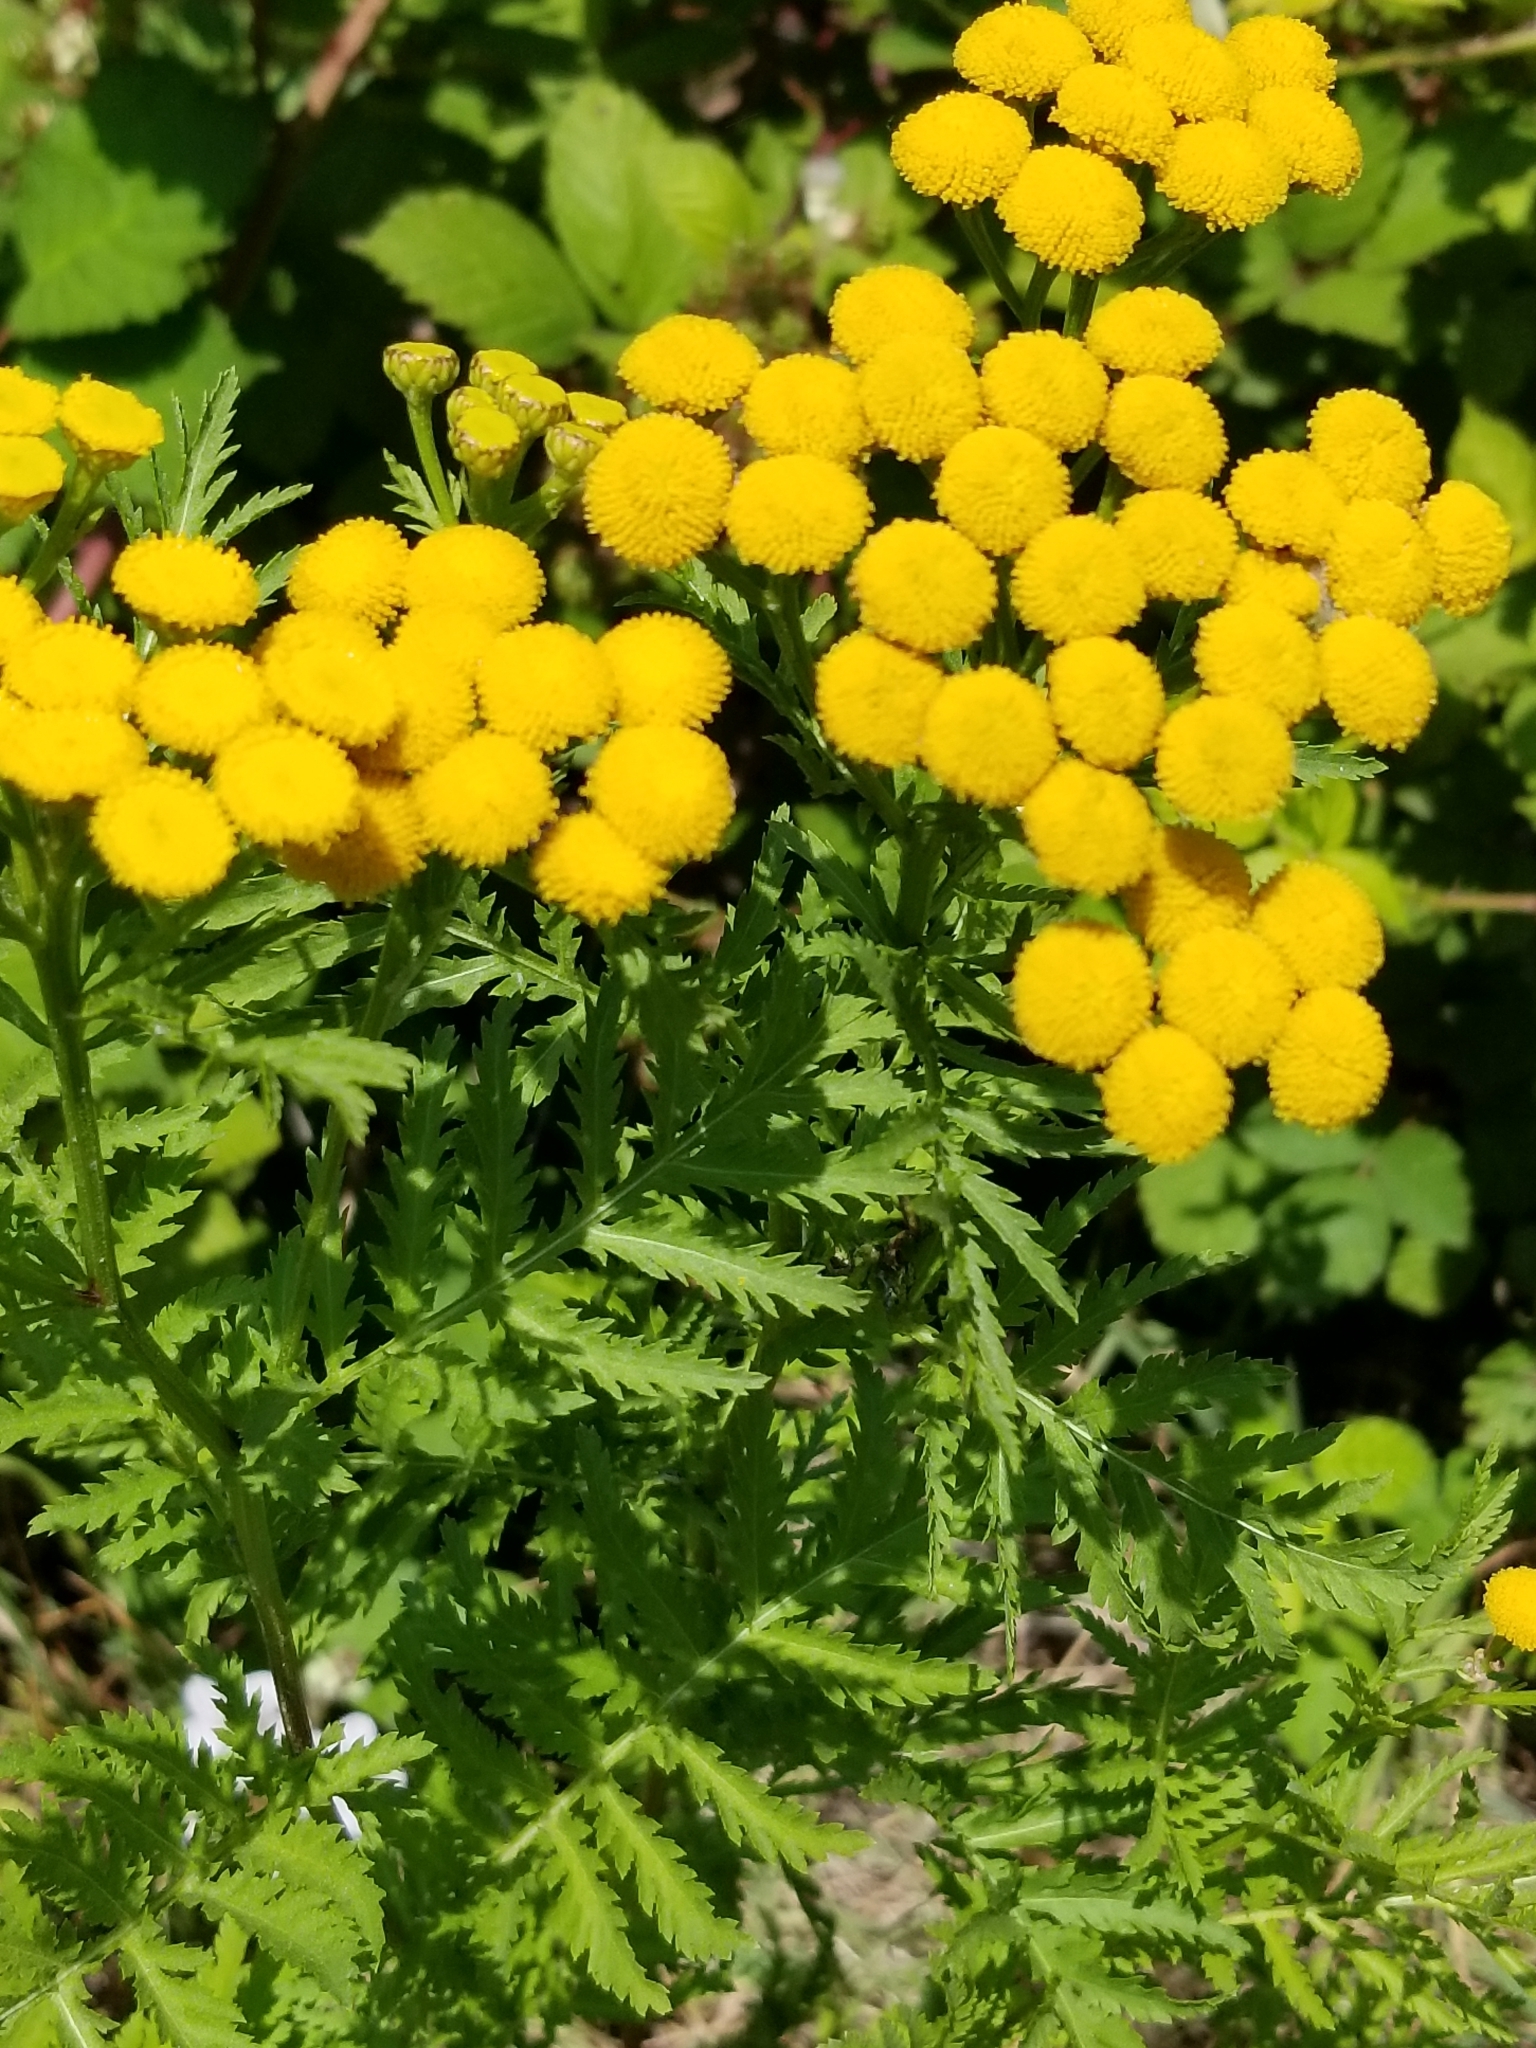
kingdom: Plantae
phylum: Tracheophyta
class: Magnoliopsida
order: Asterales
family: Asteraceae
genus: Tanacetum
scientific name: Tanacetum vulgare
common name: Common tansy
